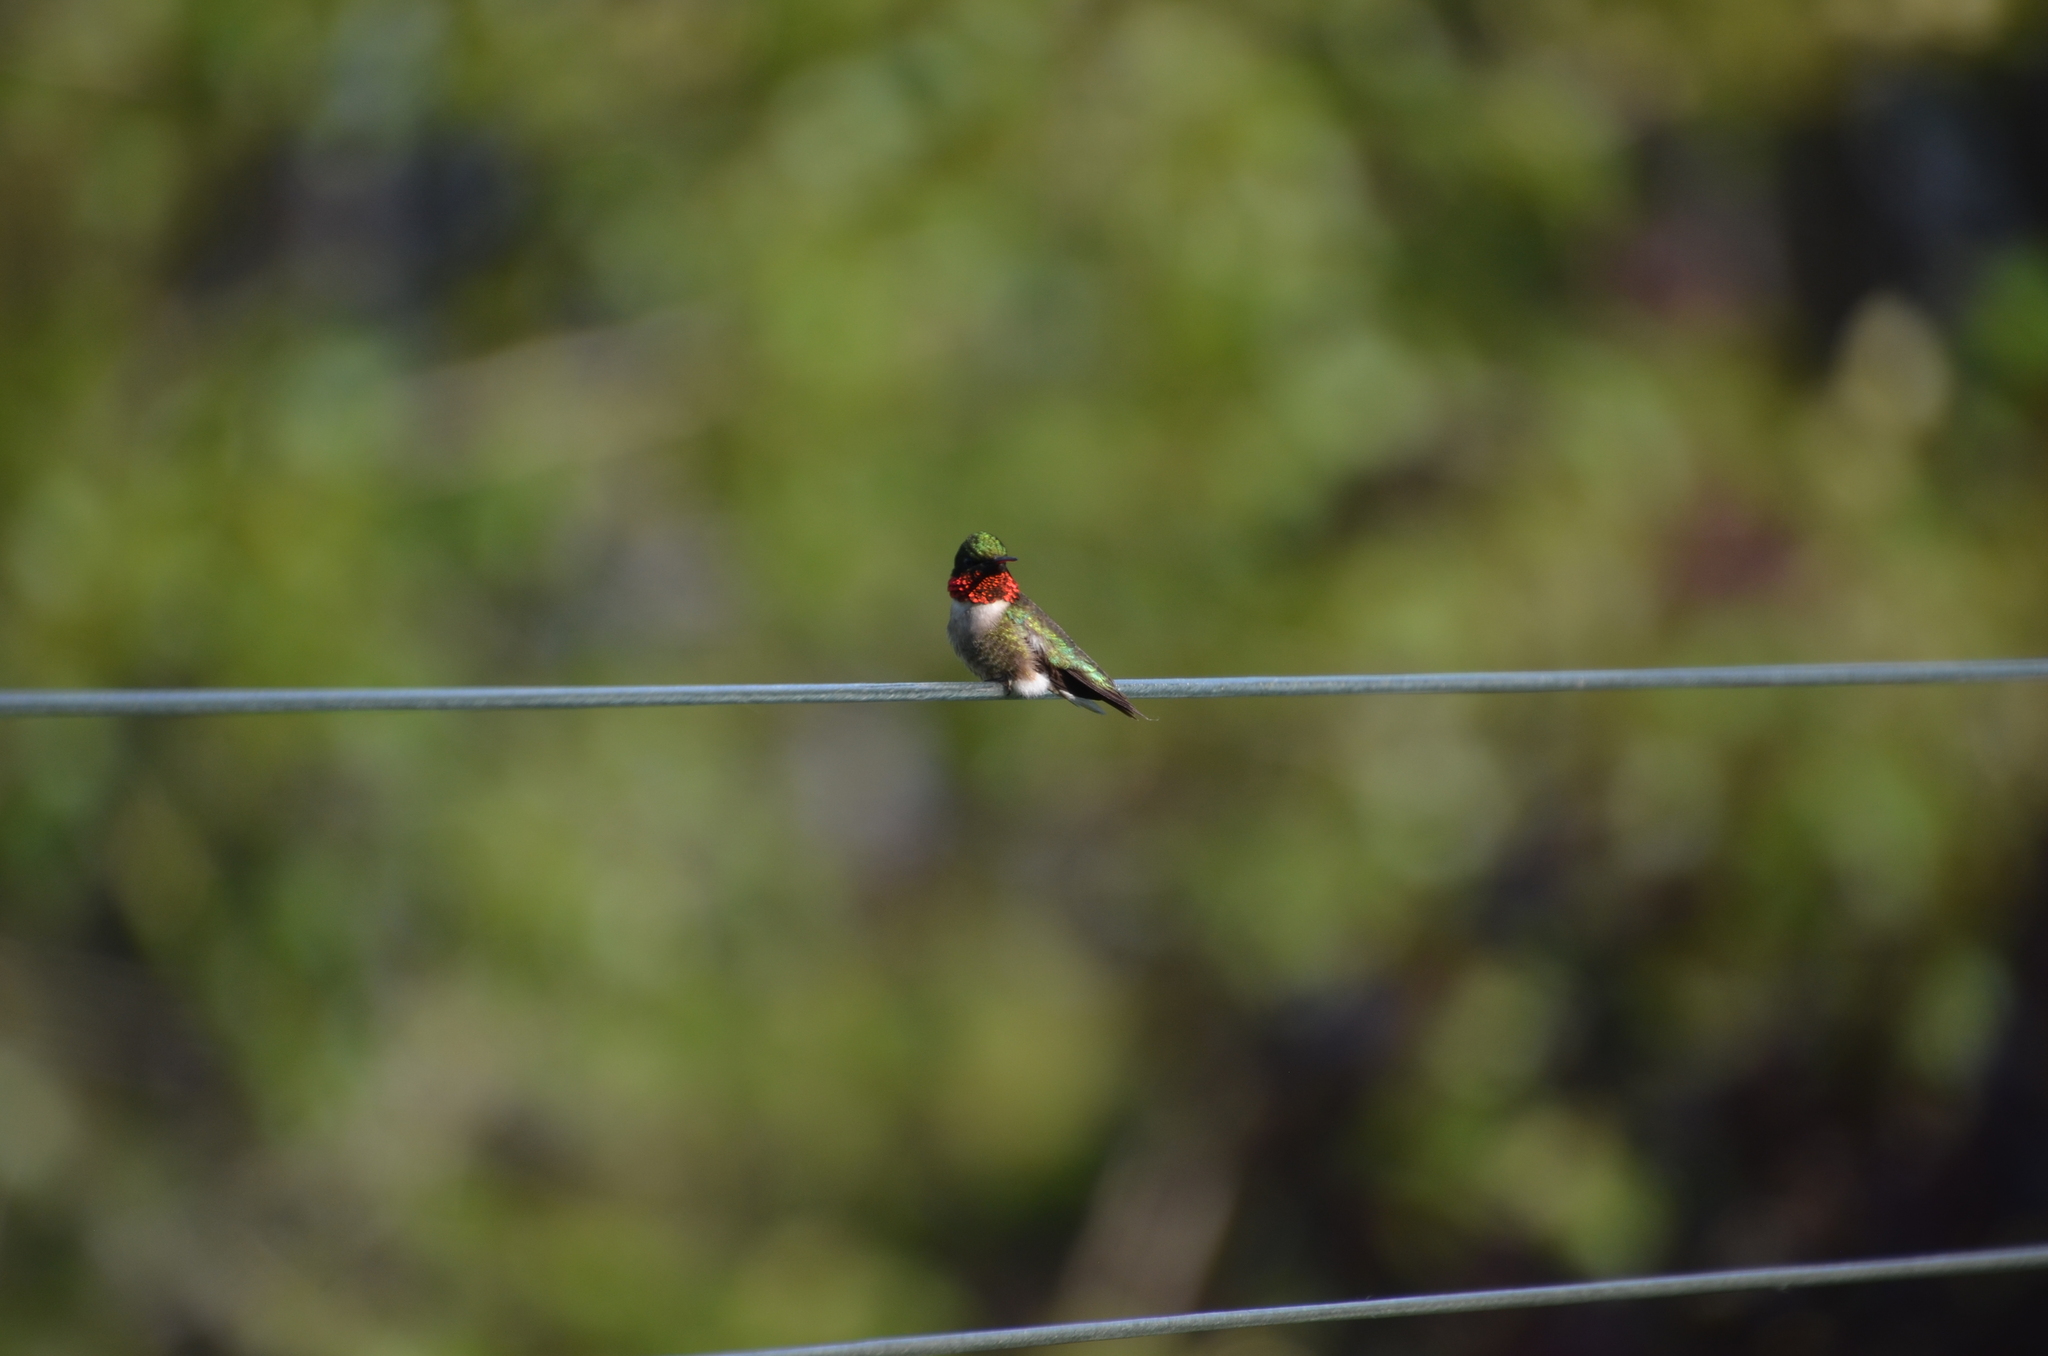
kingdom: Animalia
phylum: Chordata
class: Aves
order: Apodiformes
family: Trochilidae
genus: Archilochus
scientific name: Archilochus colubris
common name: Ruby-throated hummingbird
